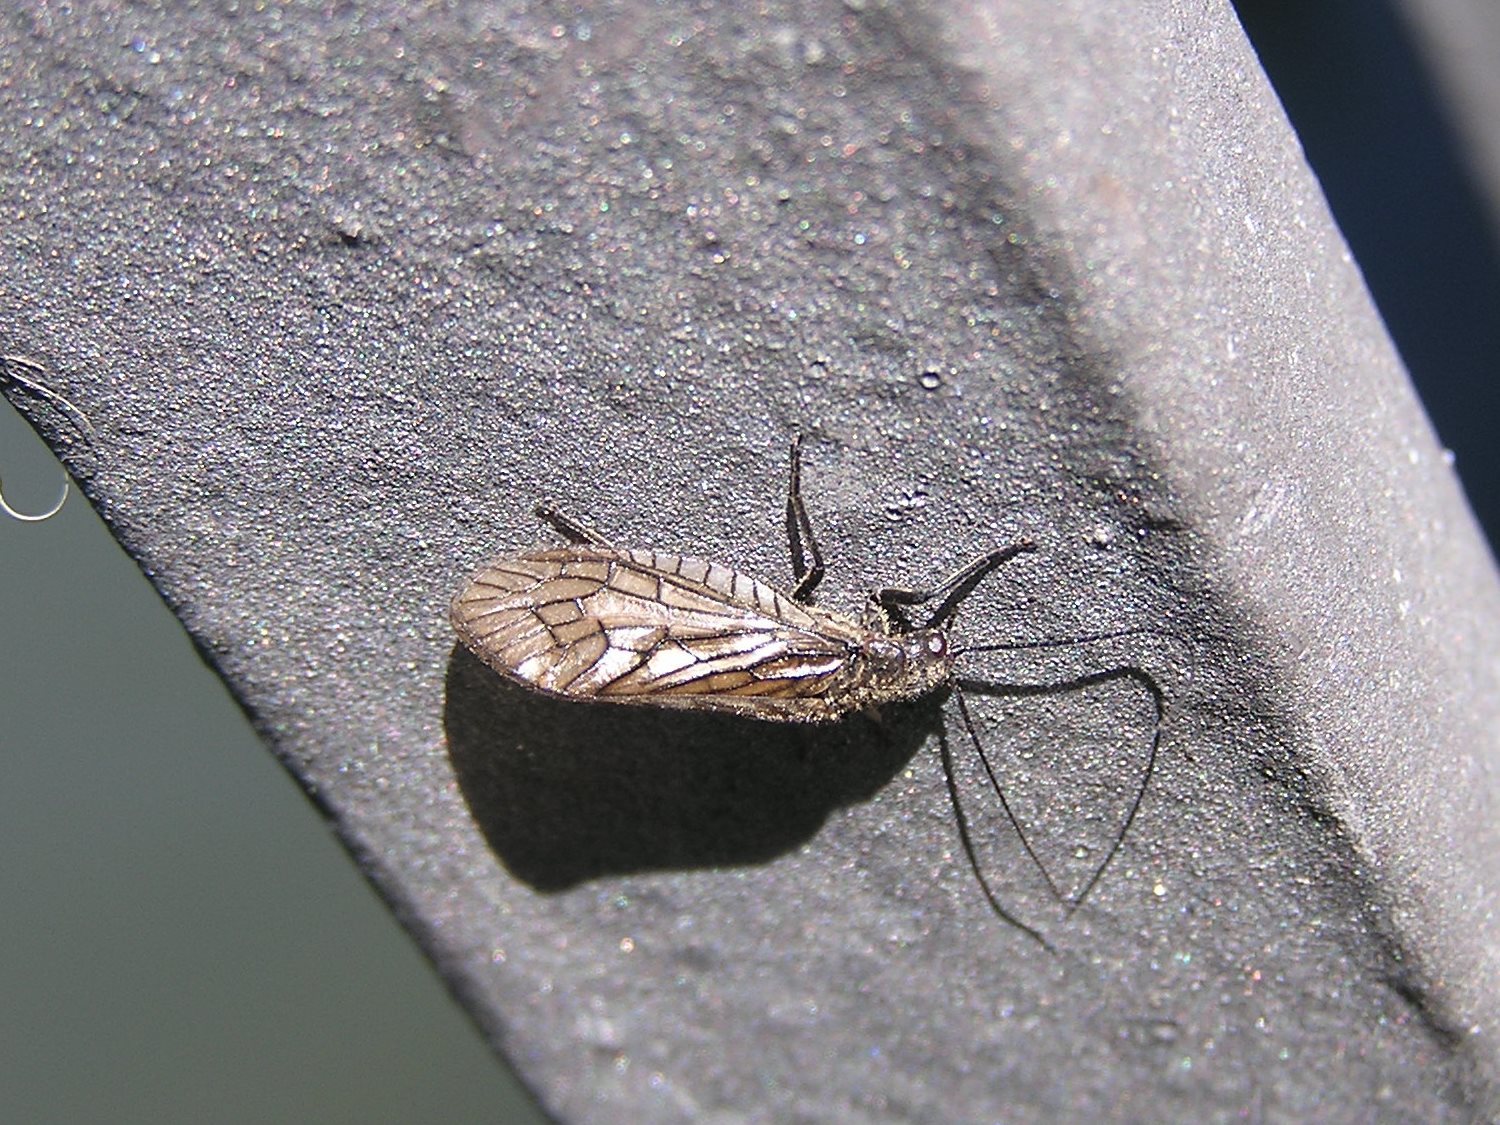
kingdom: Animalia
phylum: Arthropoda
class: Insecta
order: Megaloptera
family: Sialidae
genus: Sialis
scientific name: Sialis
